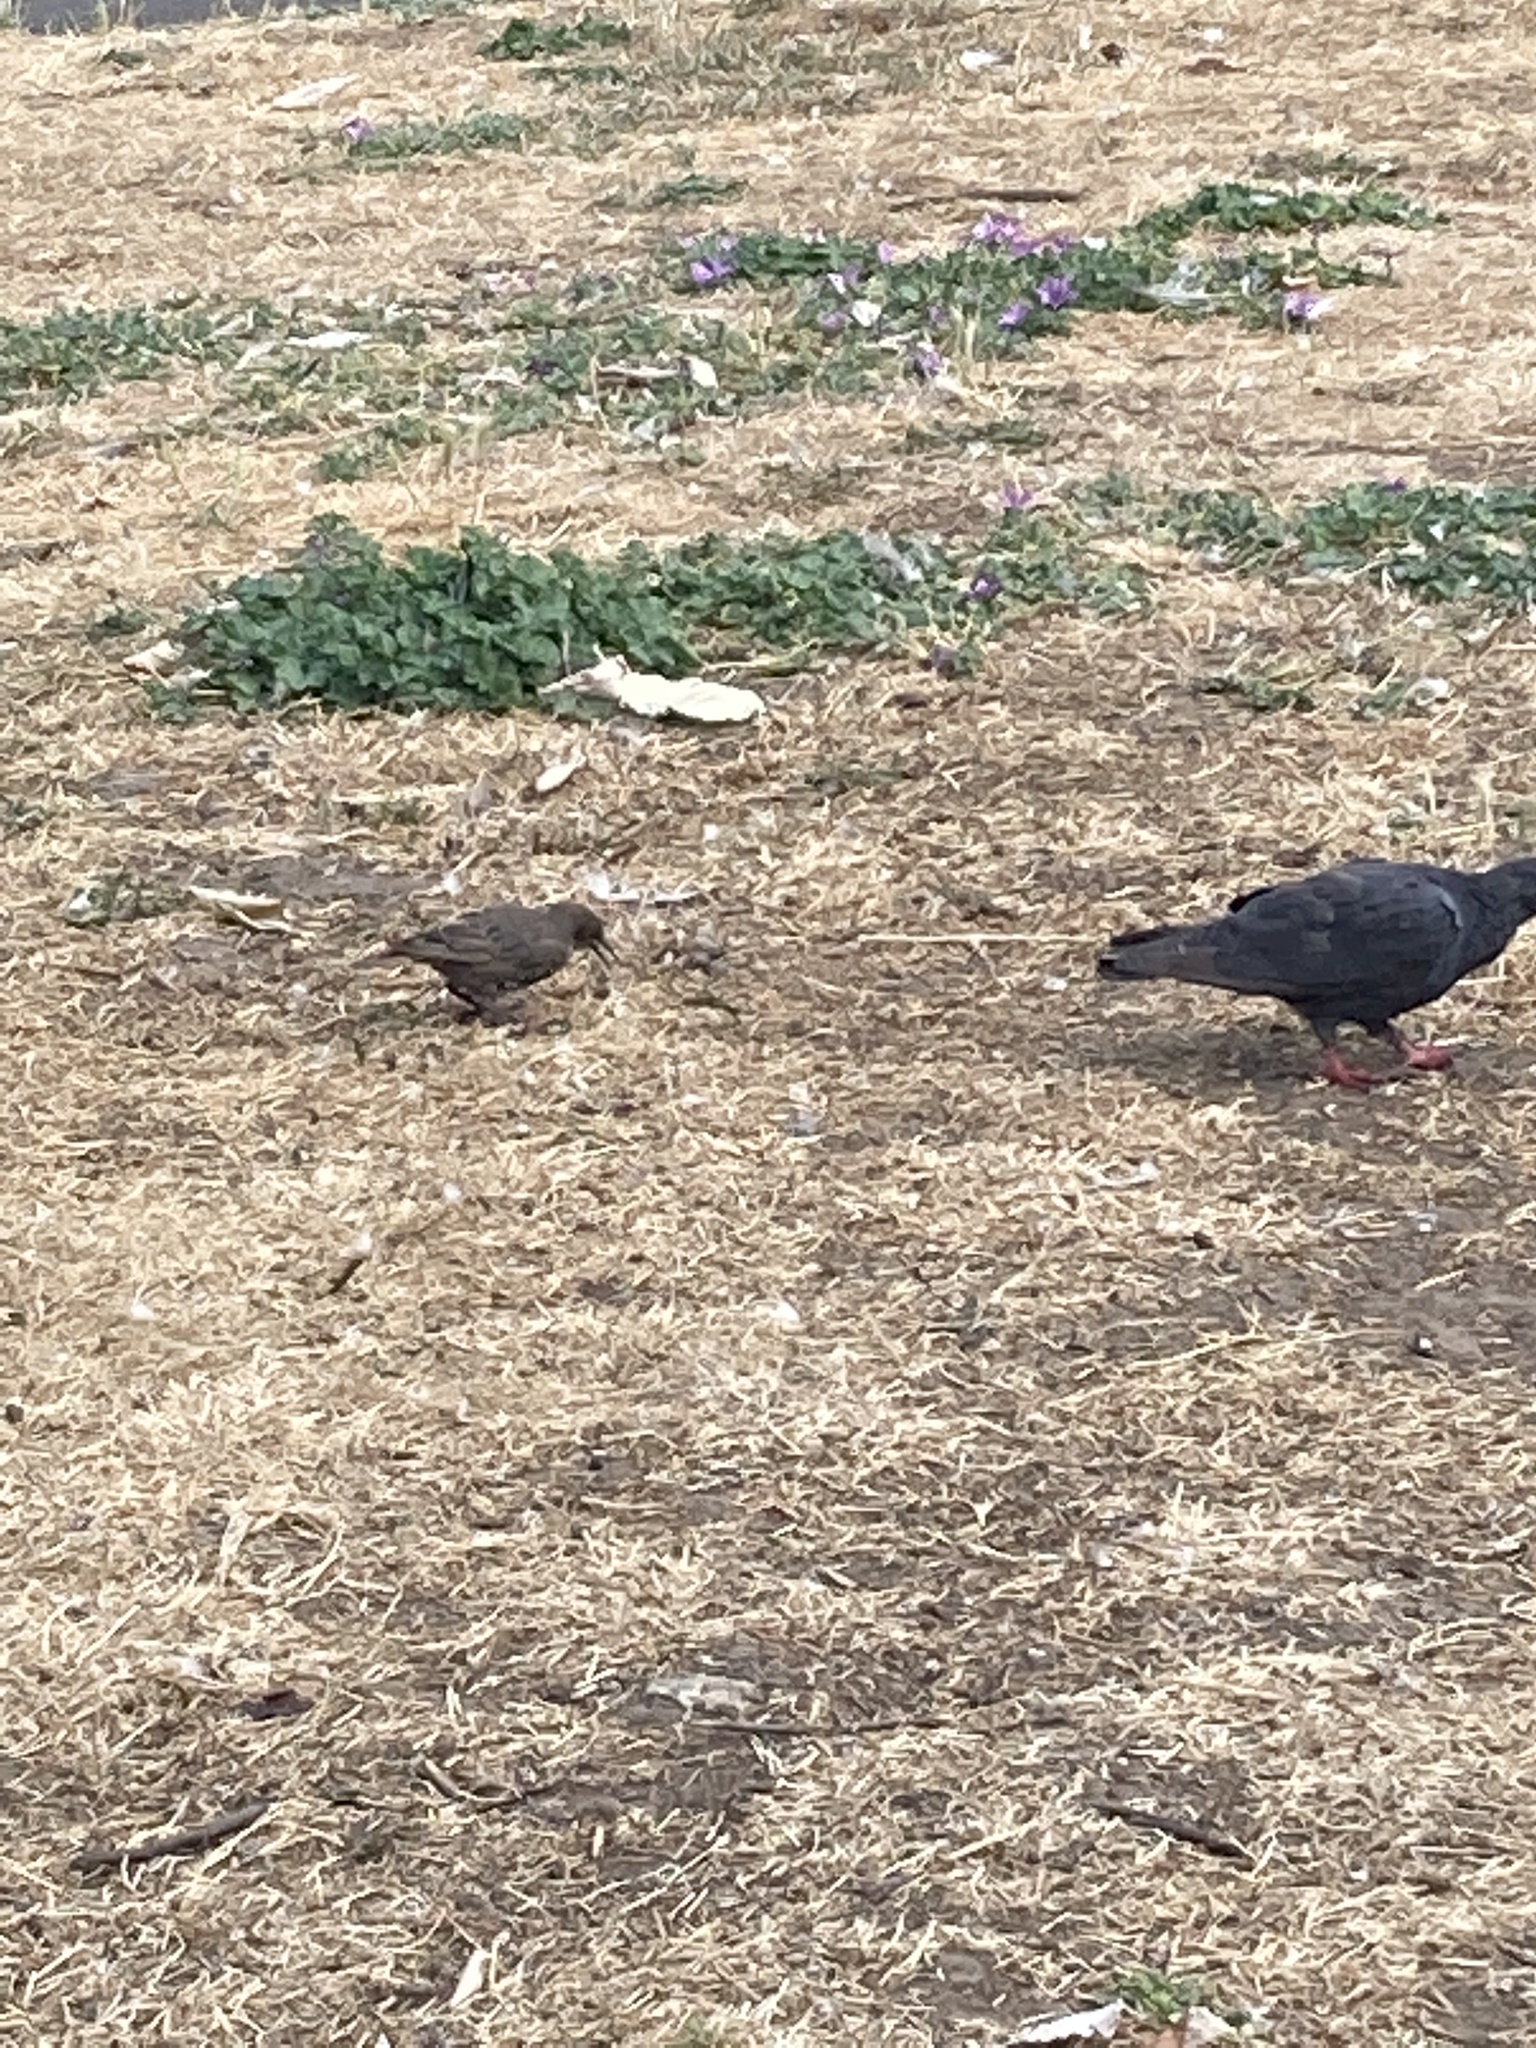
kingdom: Animalia
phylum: Chordata
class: Aves
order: Passeriformes
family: Sturnidae
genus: Sturnus
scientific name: Sturnus vulgaris
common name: Common starling
